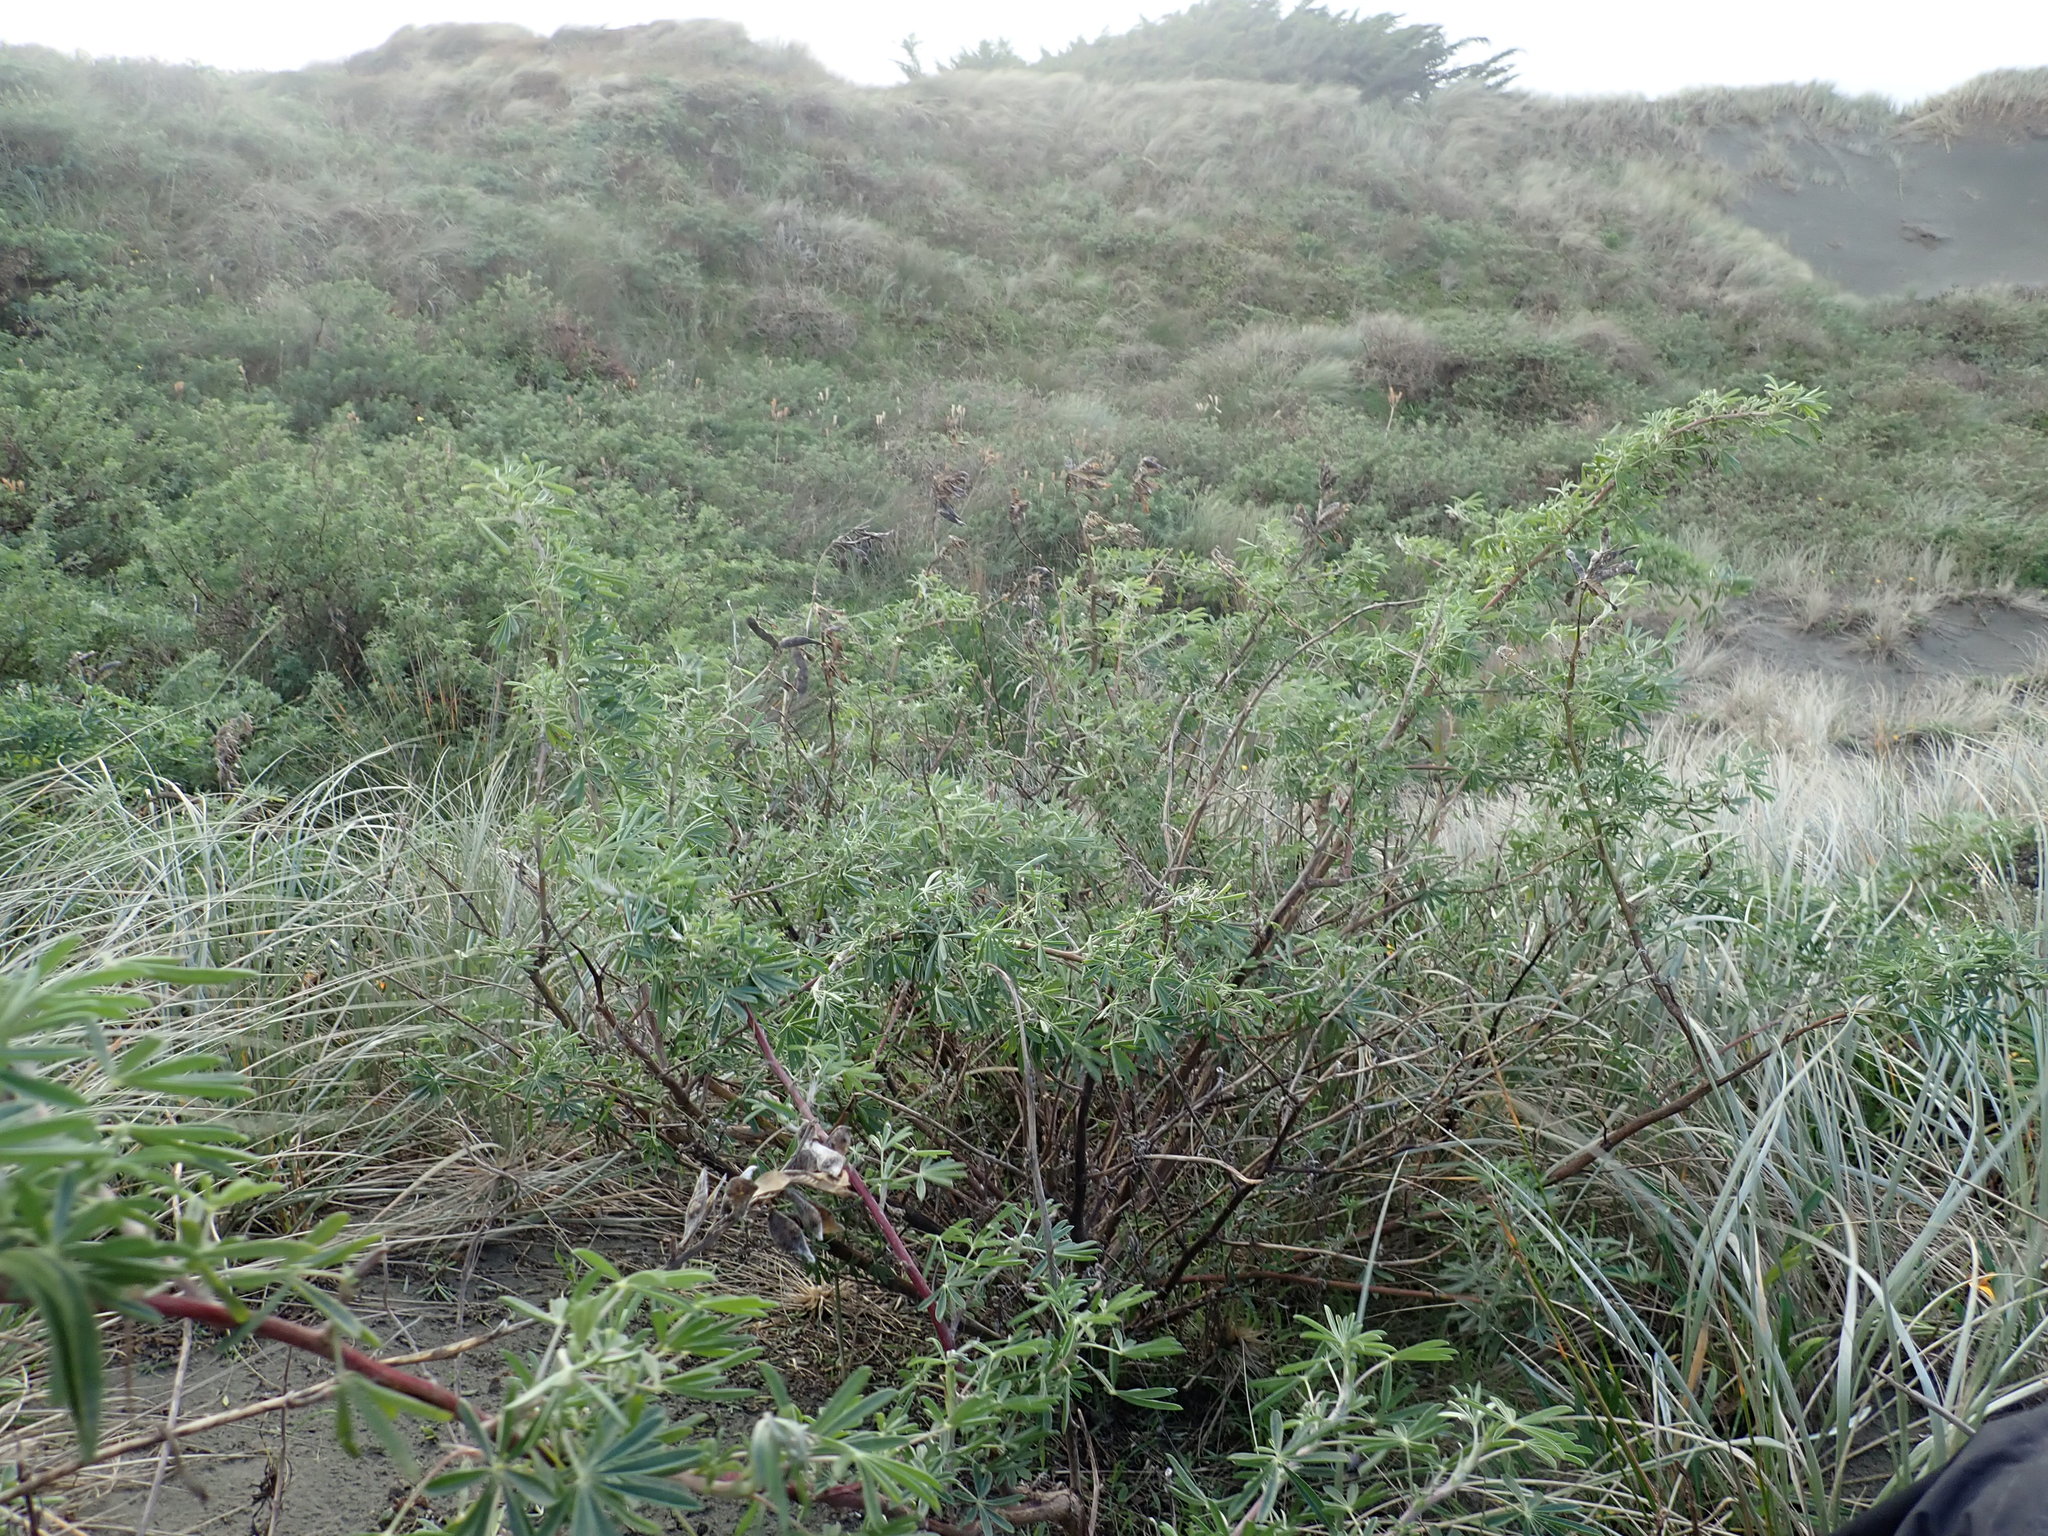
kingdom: Plantae
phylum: Tracheophyta
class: Magnoliopsida
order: Fabales
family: Fabaceae
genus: Lupinus
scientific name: Lupinus arboreus
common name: Yellow bush lupine
